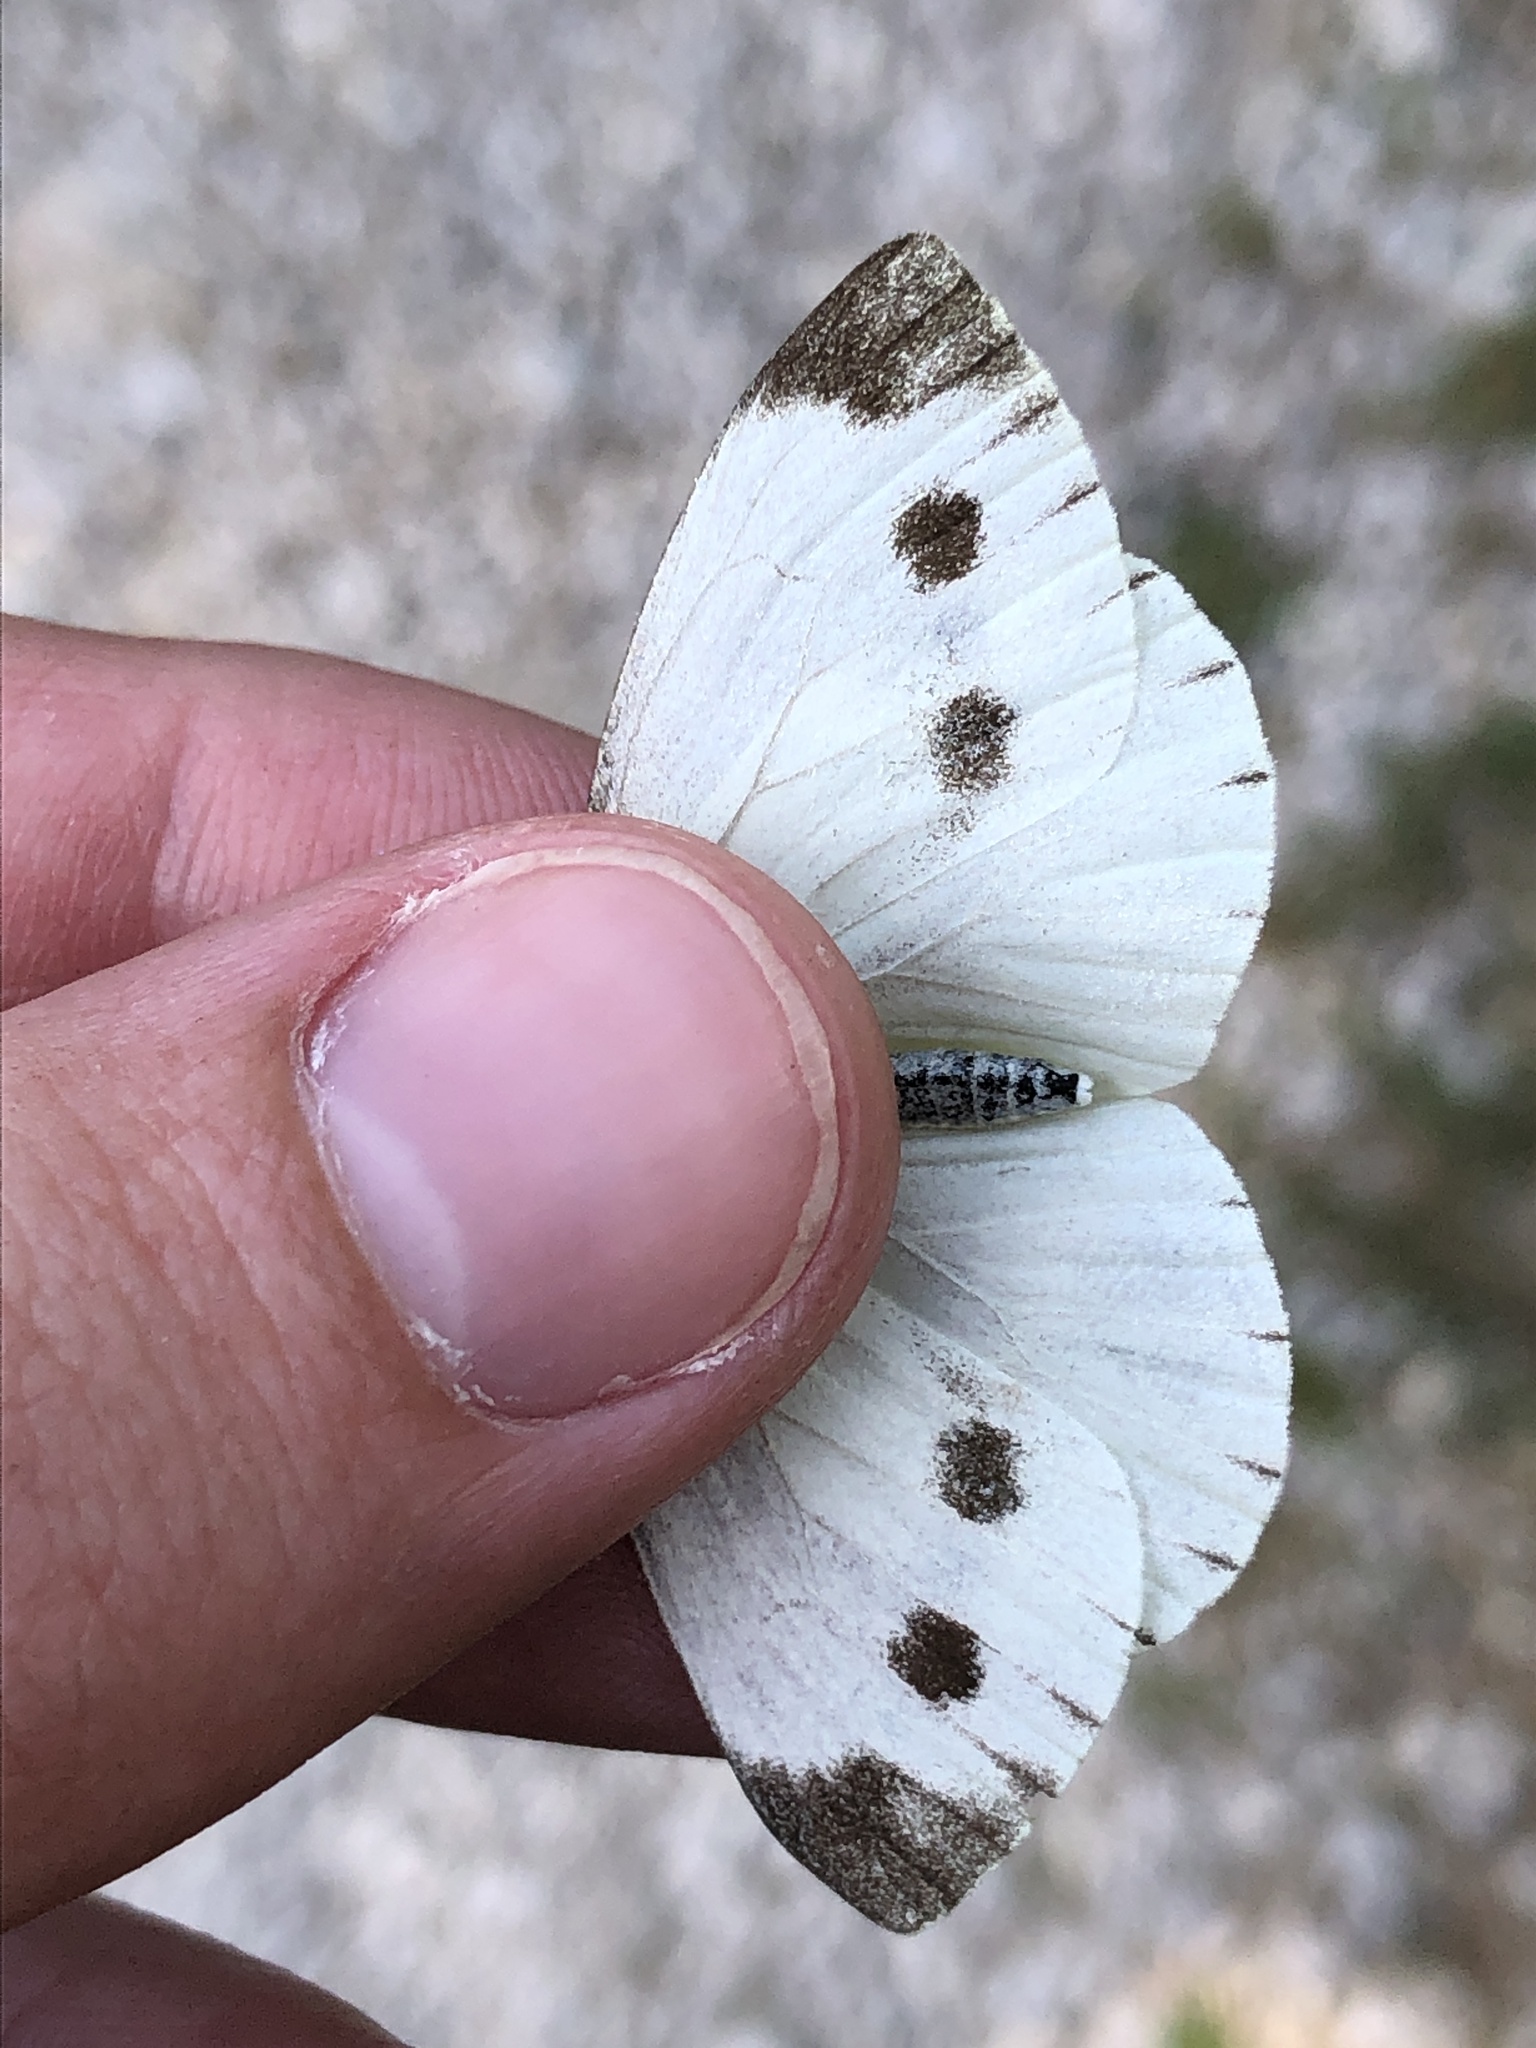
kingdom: Animalia
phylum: Arthropoda
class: Insecta
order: Lepidoptera
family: Pieridae
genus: Pieris
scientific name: Pieris napi
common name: Green-veined white
